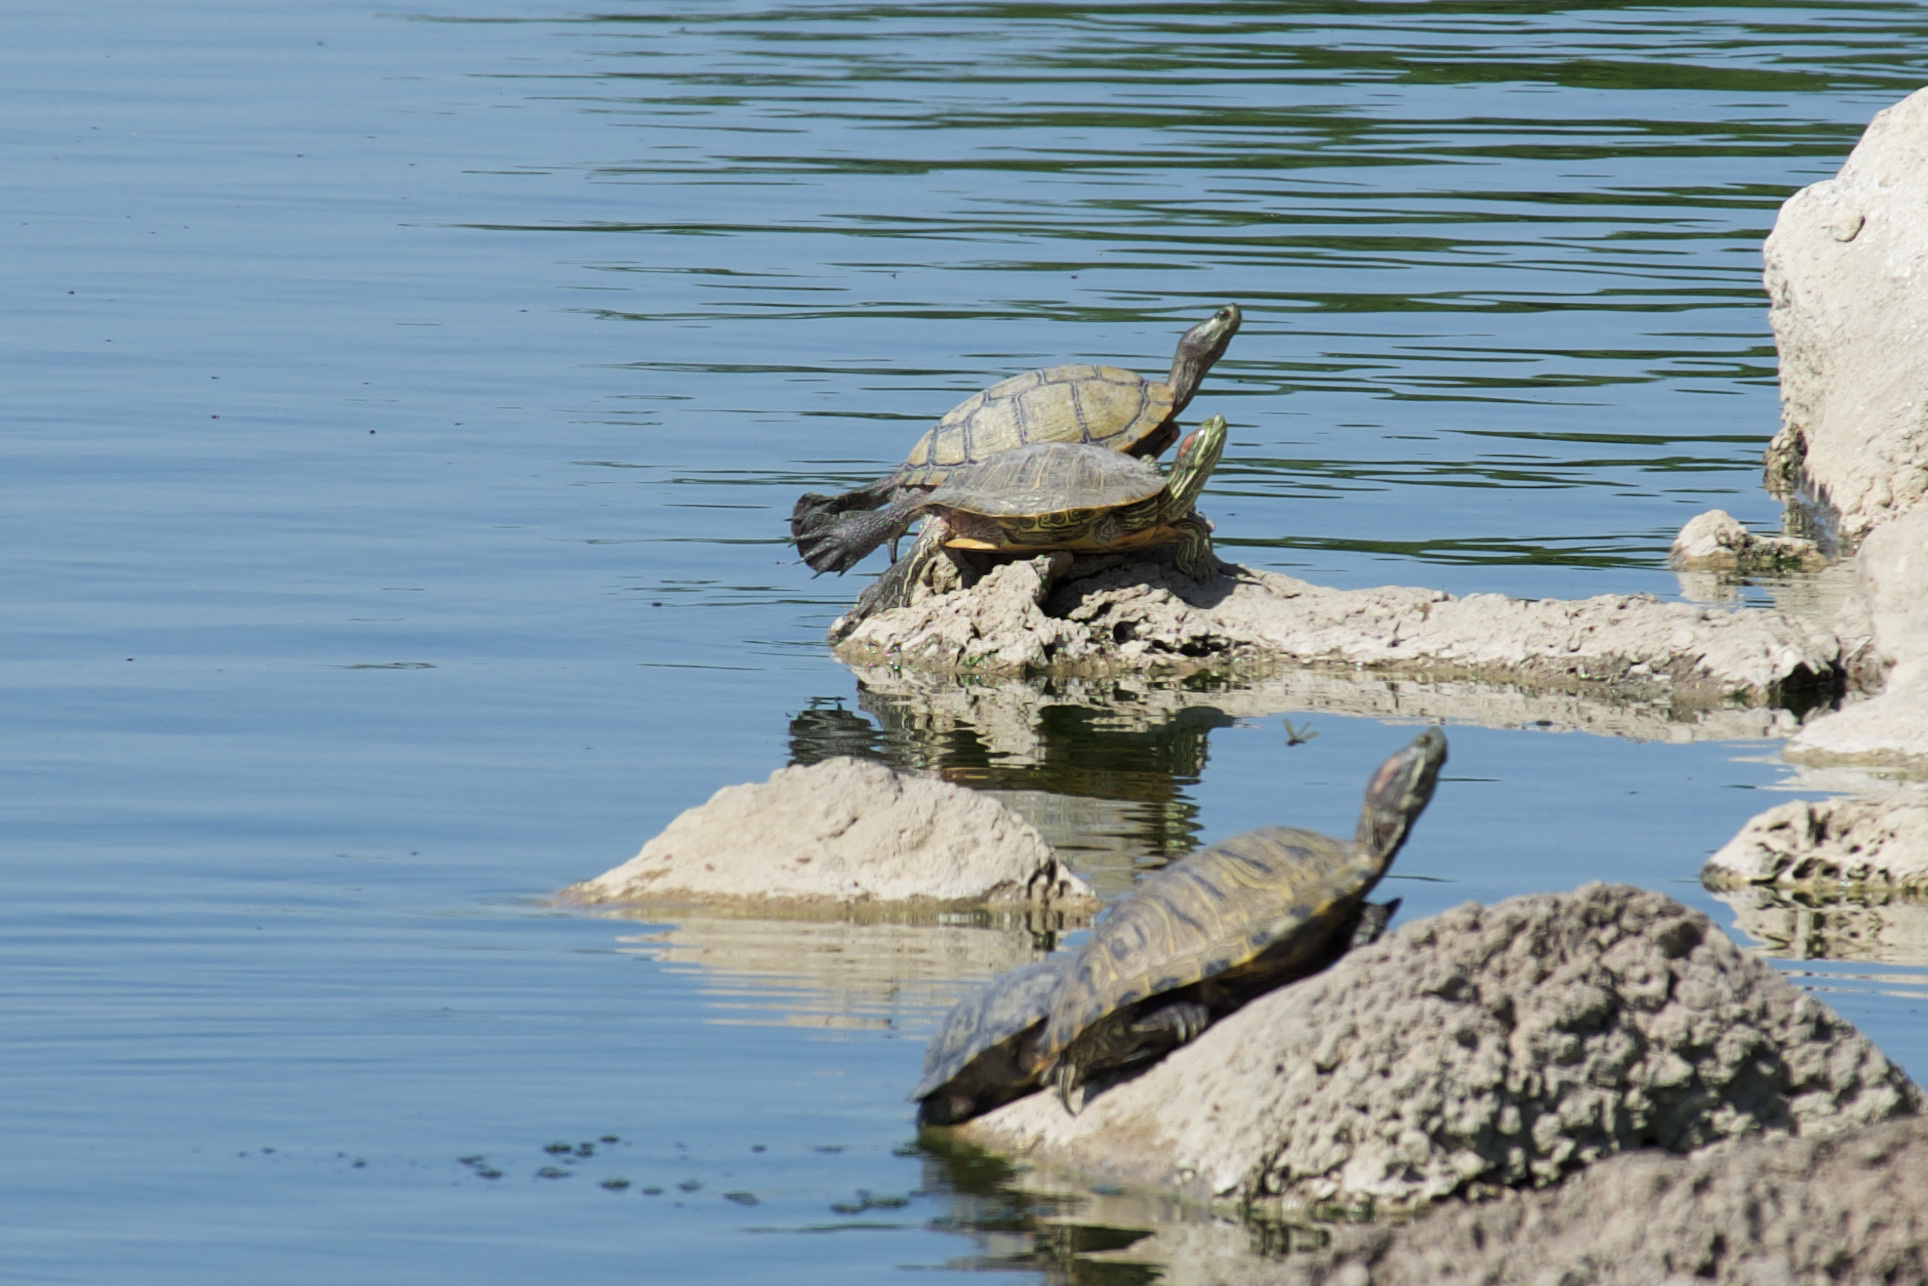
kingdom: Animalia
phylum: Chordata
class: Testudines
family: Emydidae
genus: Trachemys
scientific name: Trachemys scripta
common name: Slider
